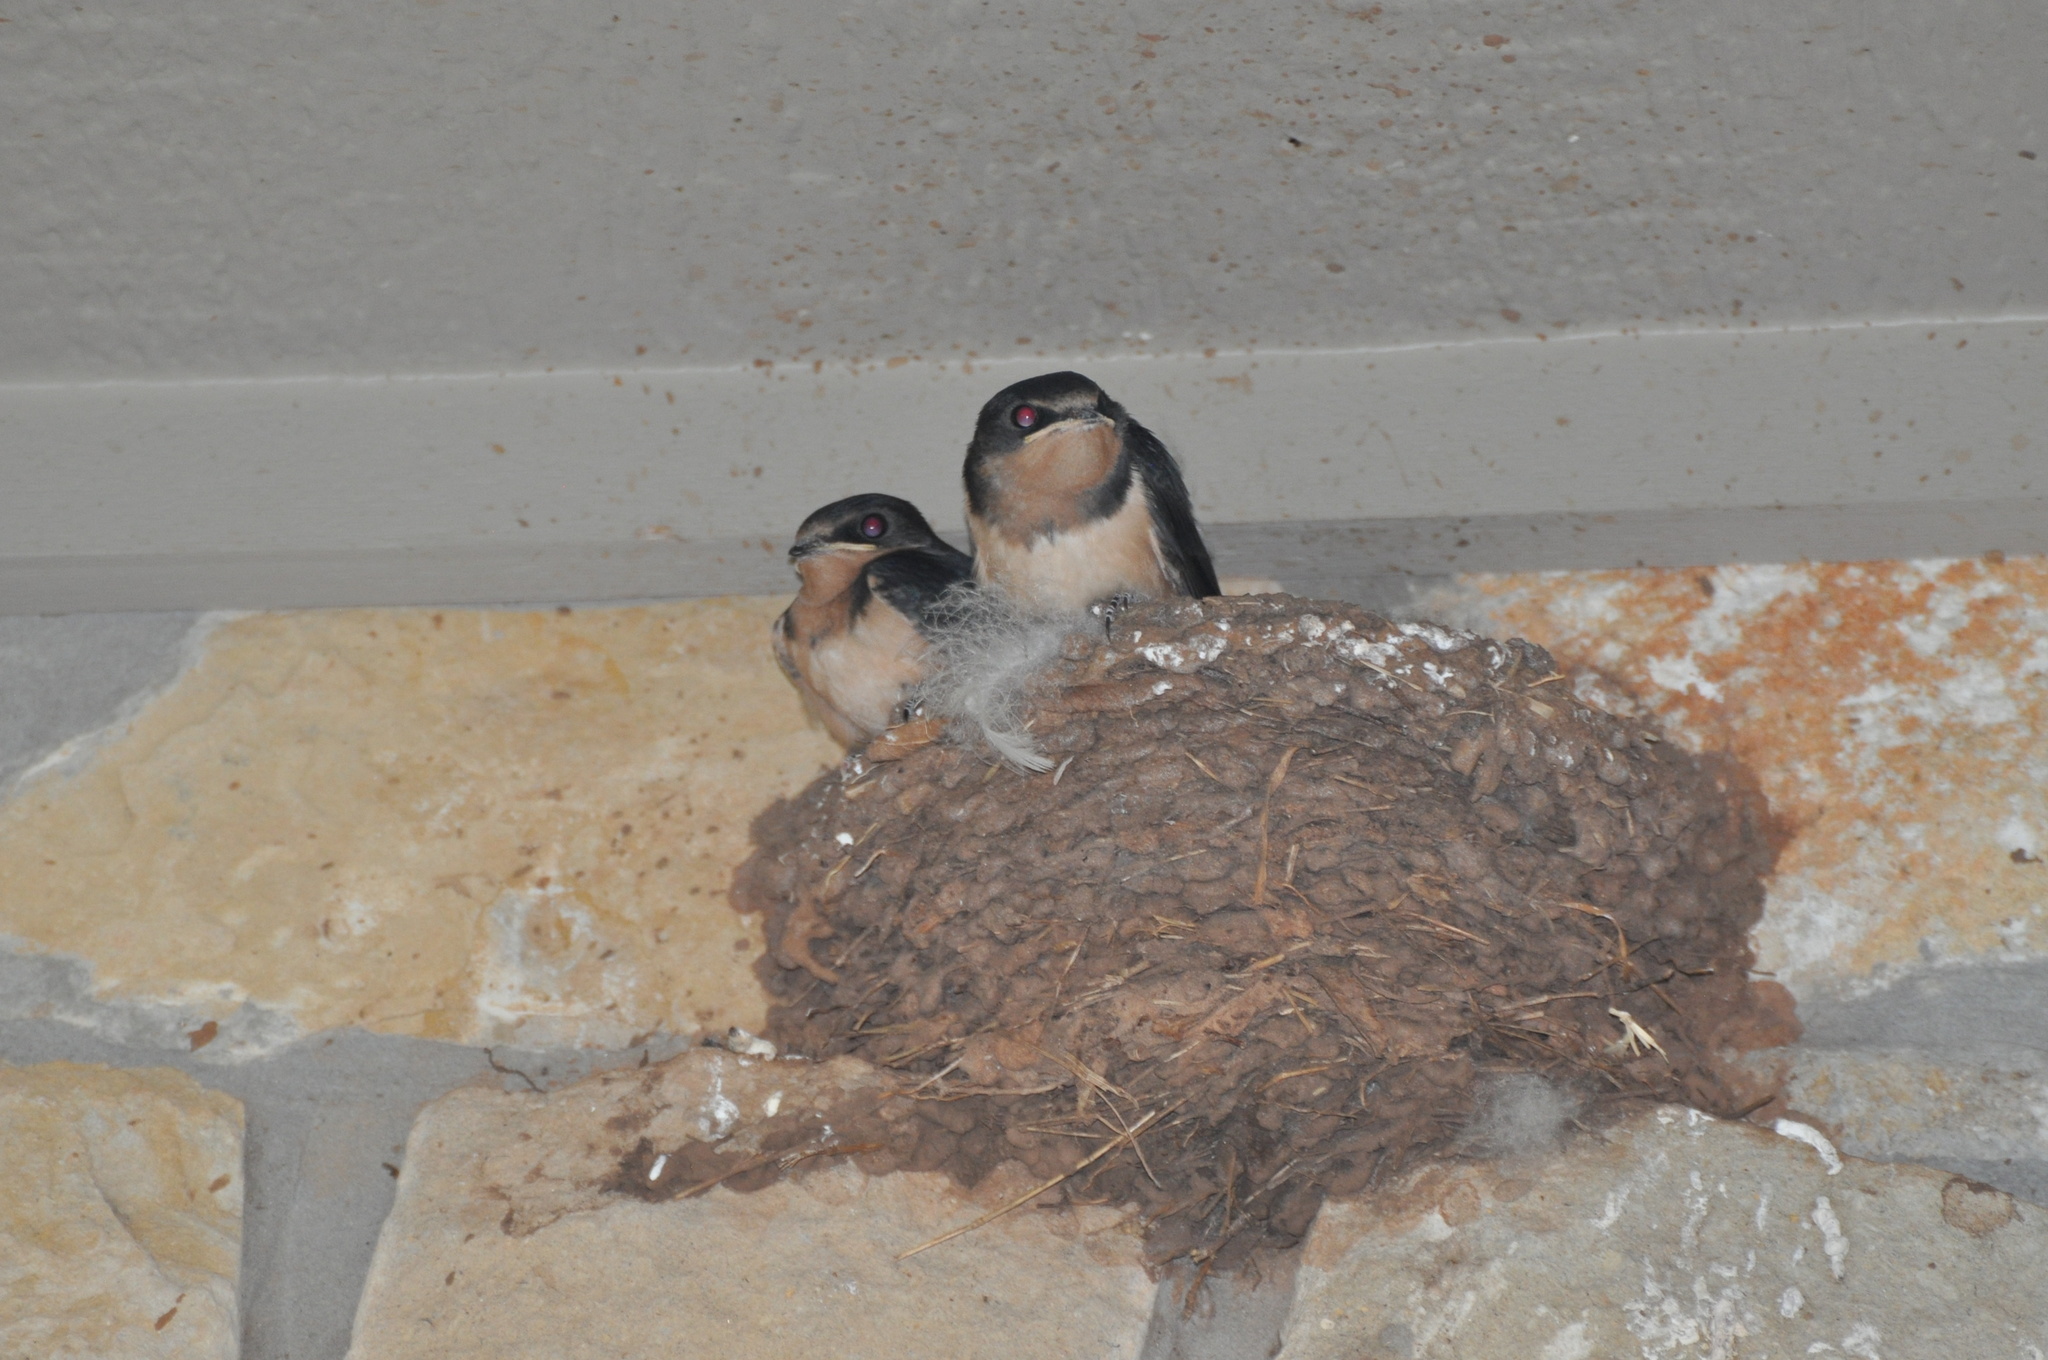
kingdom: Animalia
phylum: Chordata
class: Aves
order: Passeriformes
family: Hirundinidae
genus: Hirundo
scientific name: Hirundo rustica
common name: Barn swallow
